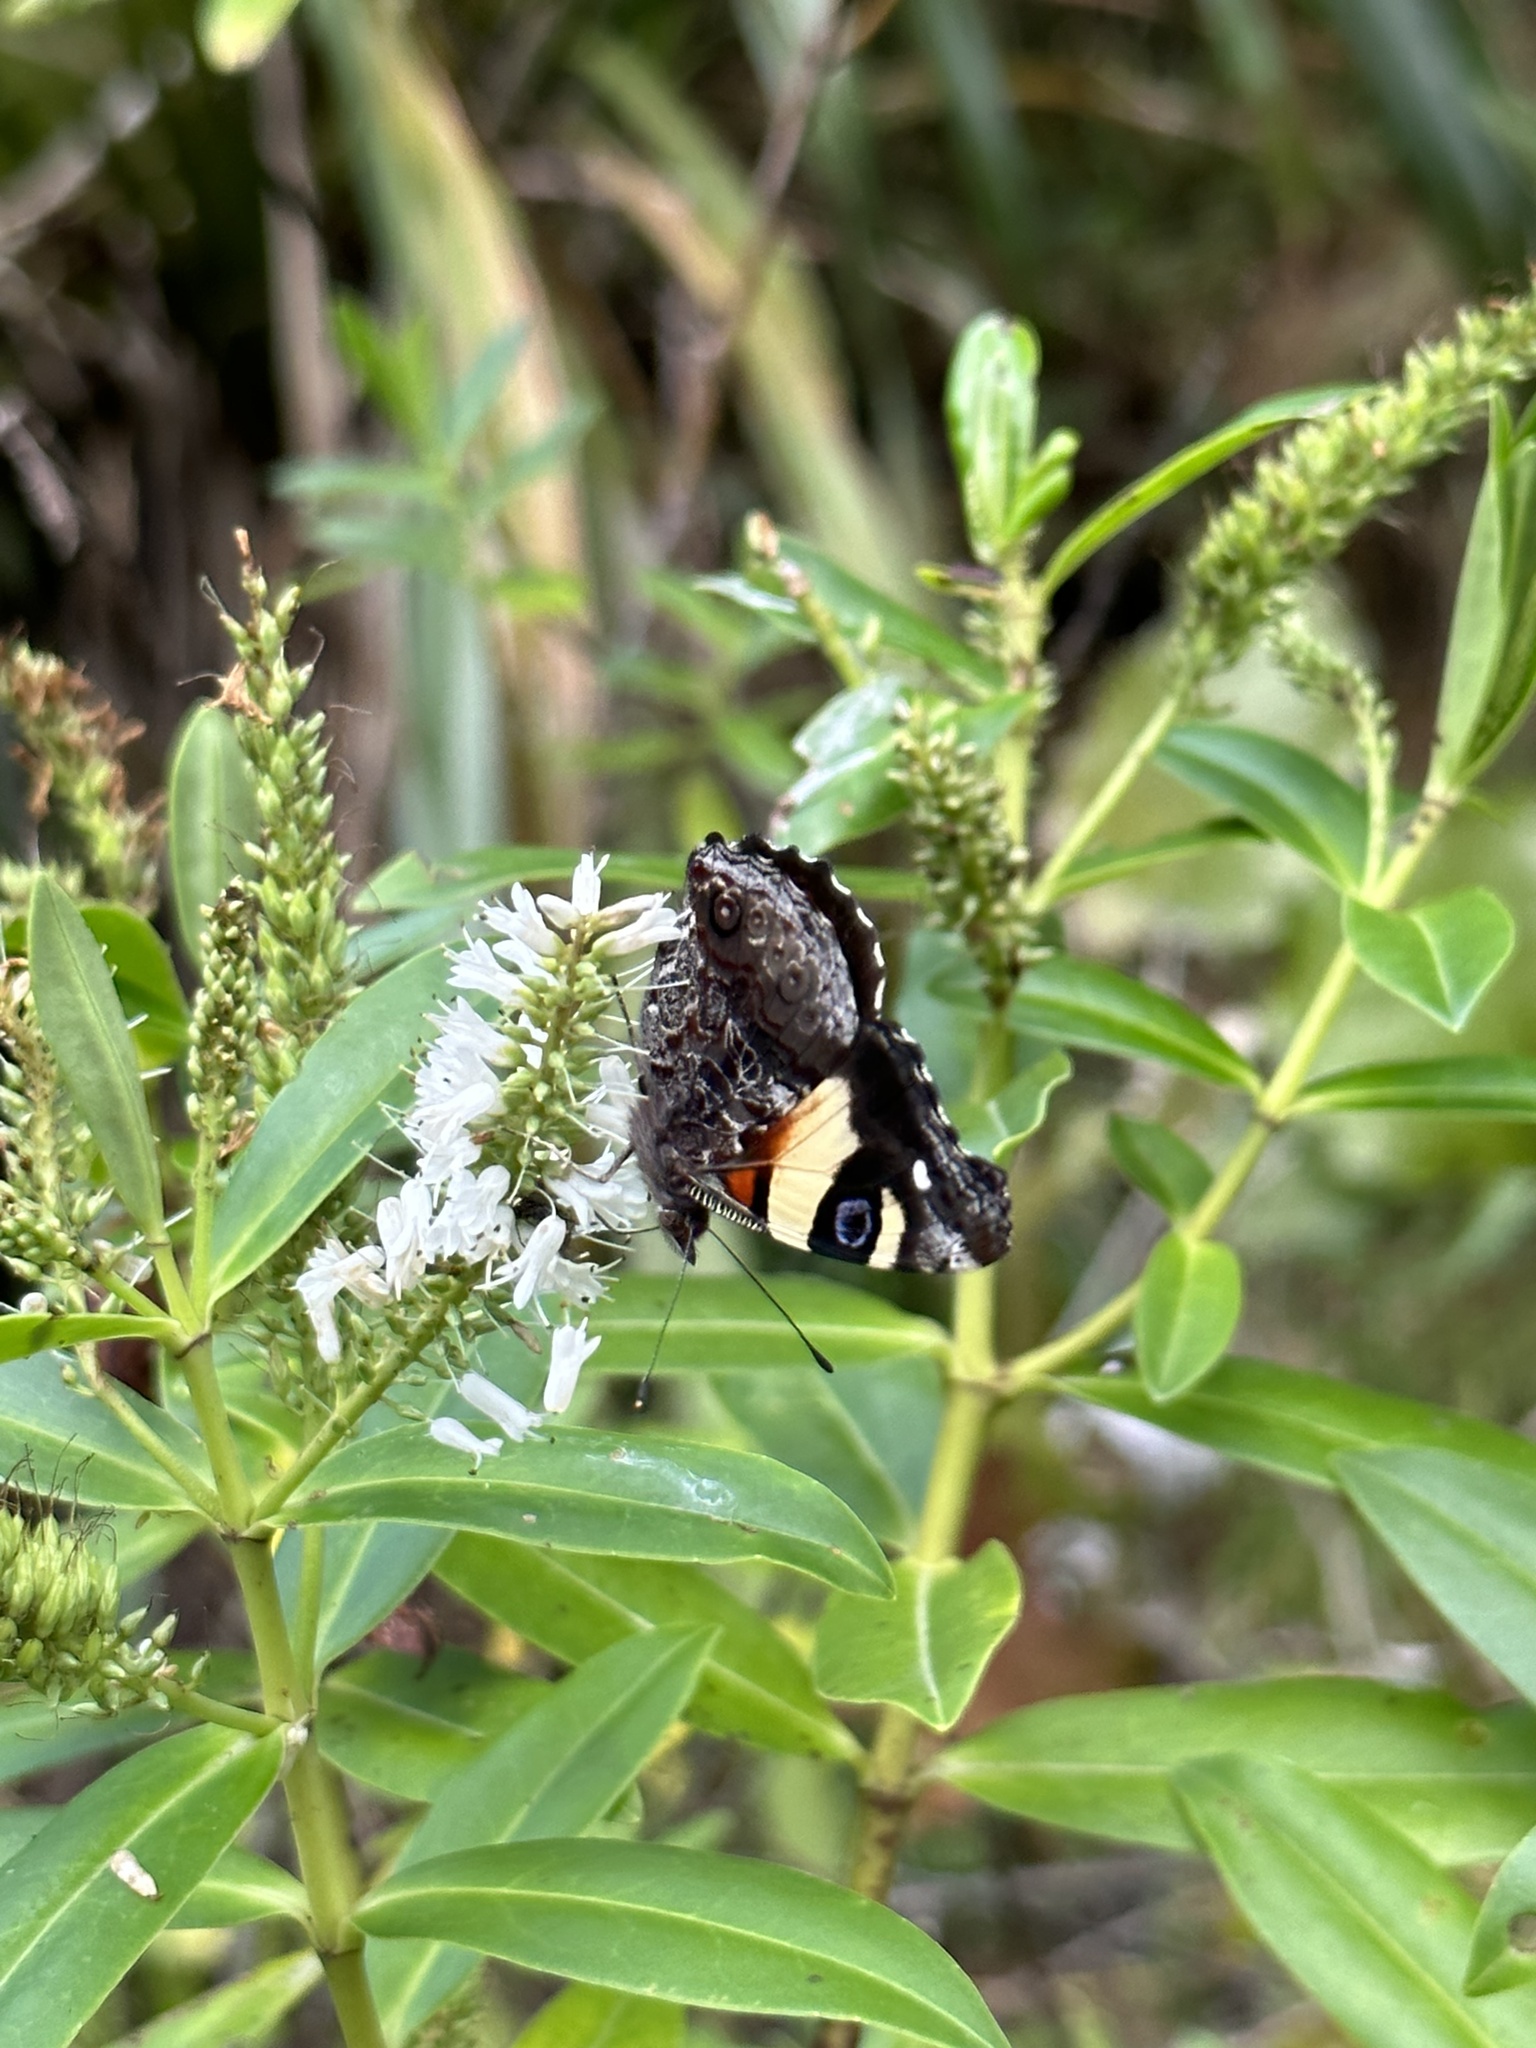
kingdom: Animalia
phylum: Arthropoda
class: Insecta
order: Lepidoptera
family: Nymphalidae
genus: Vanessa
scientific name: Vanessa itea
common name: Yellow admiral
